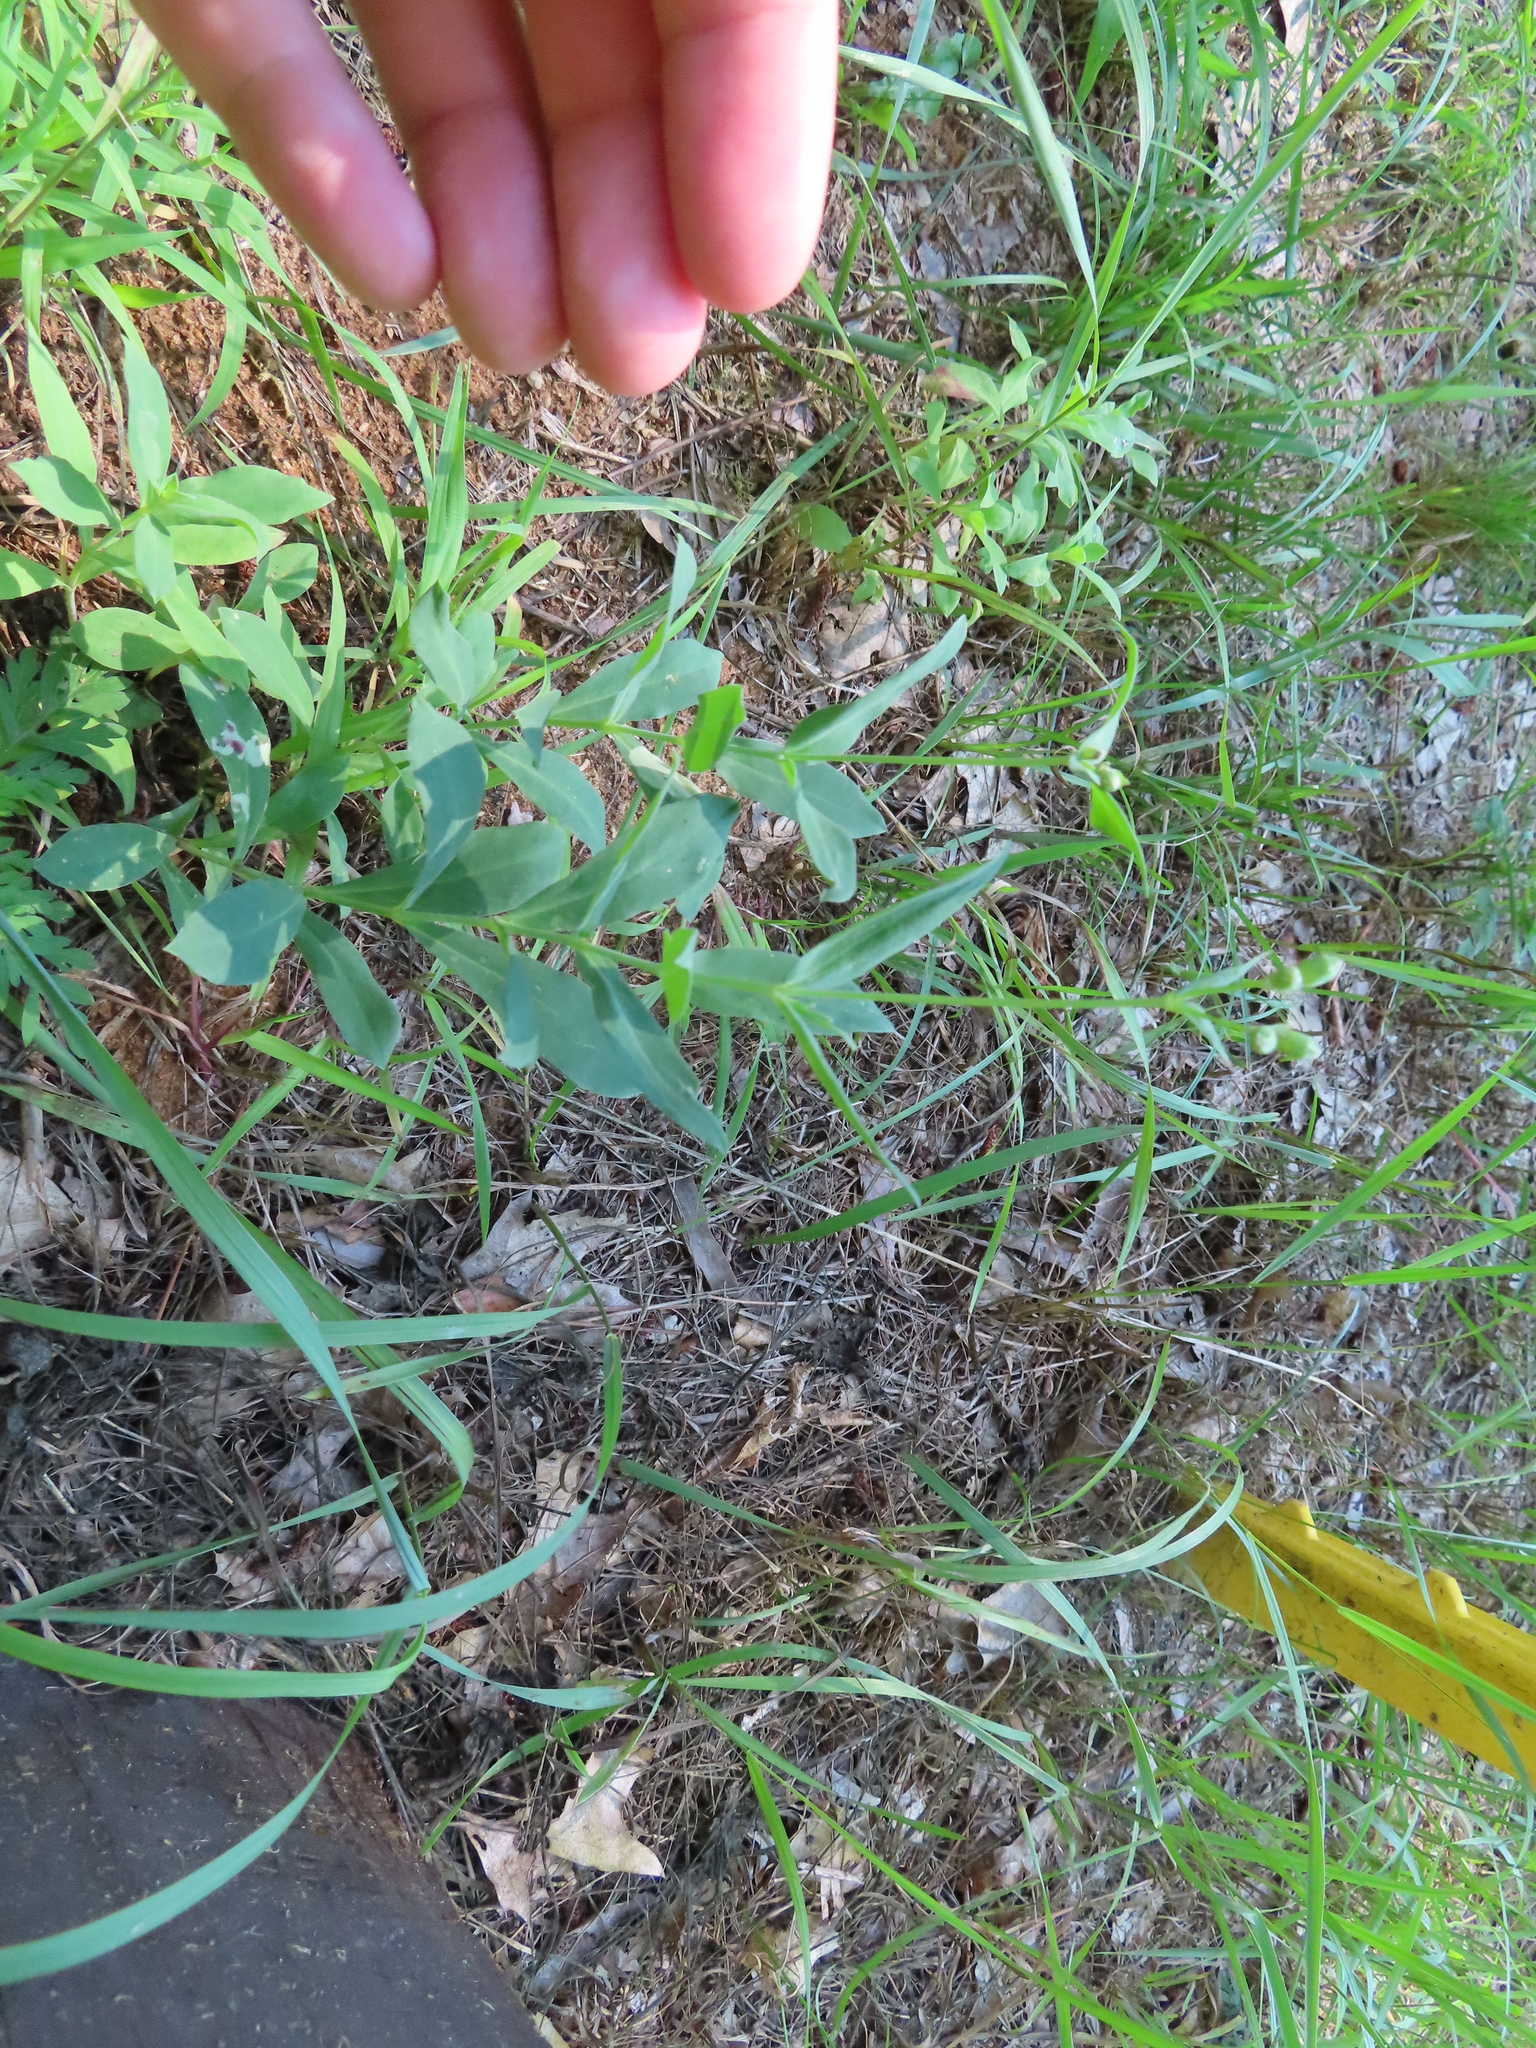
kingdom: Plantae
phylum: Tracheophyta
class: Magnoliopsida
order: Caryophyllales
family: Caryophyllaceae
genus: Silene
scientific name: Silene vulgaris
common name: Bladder campion
